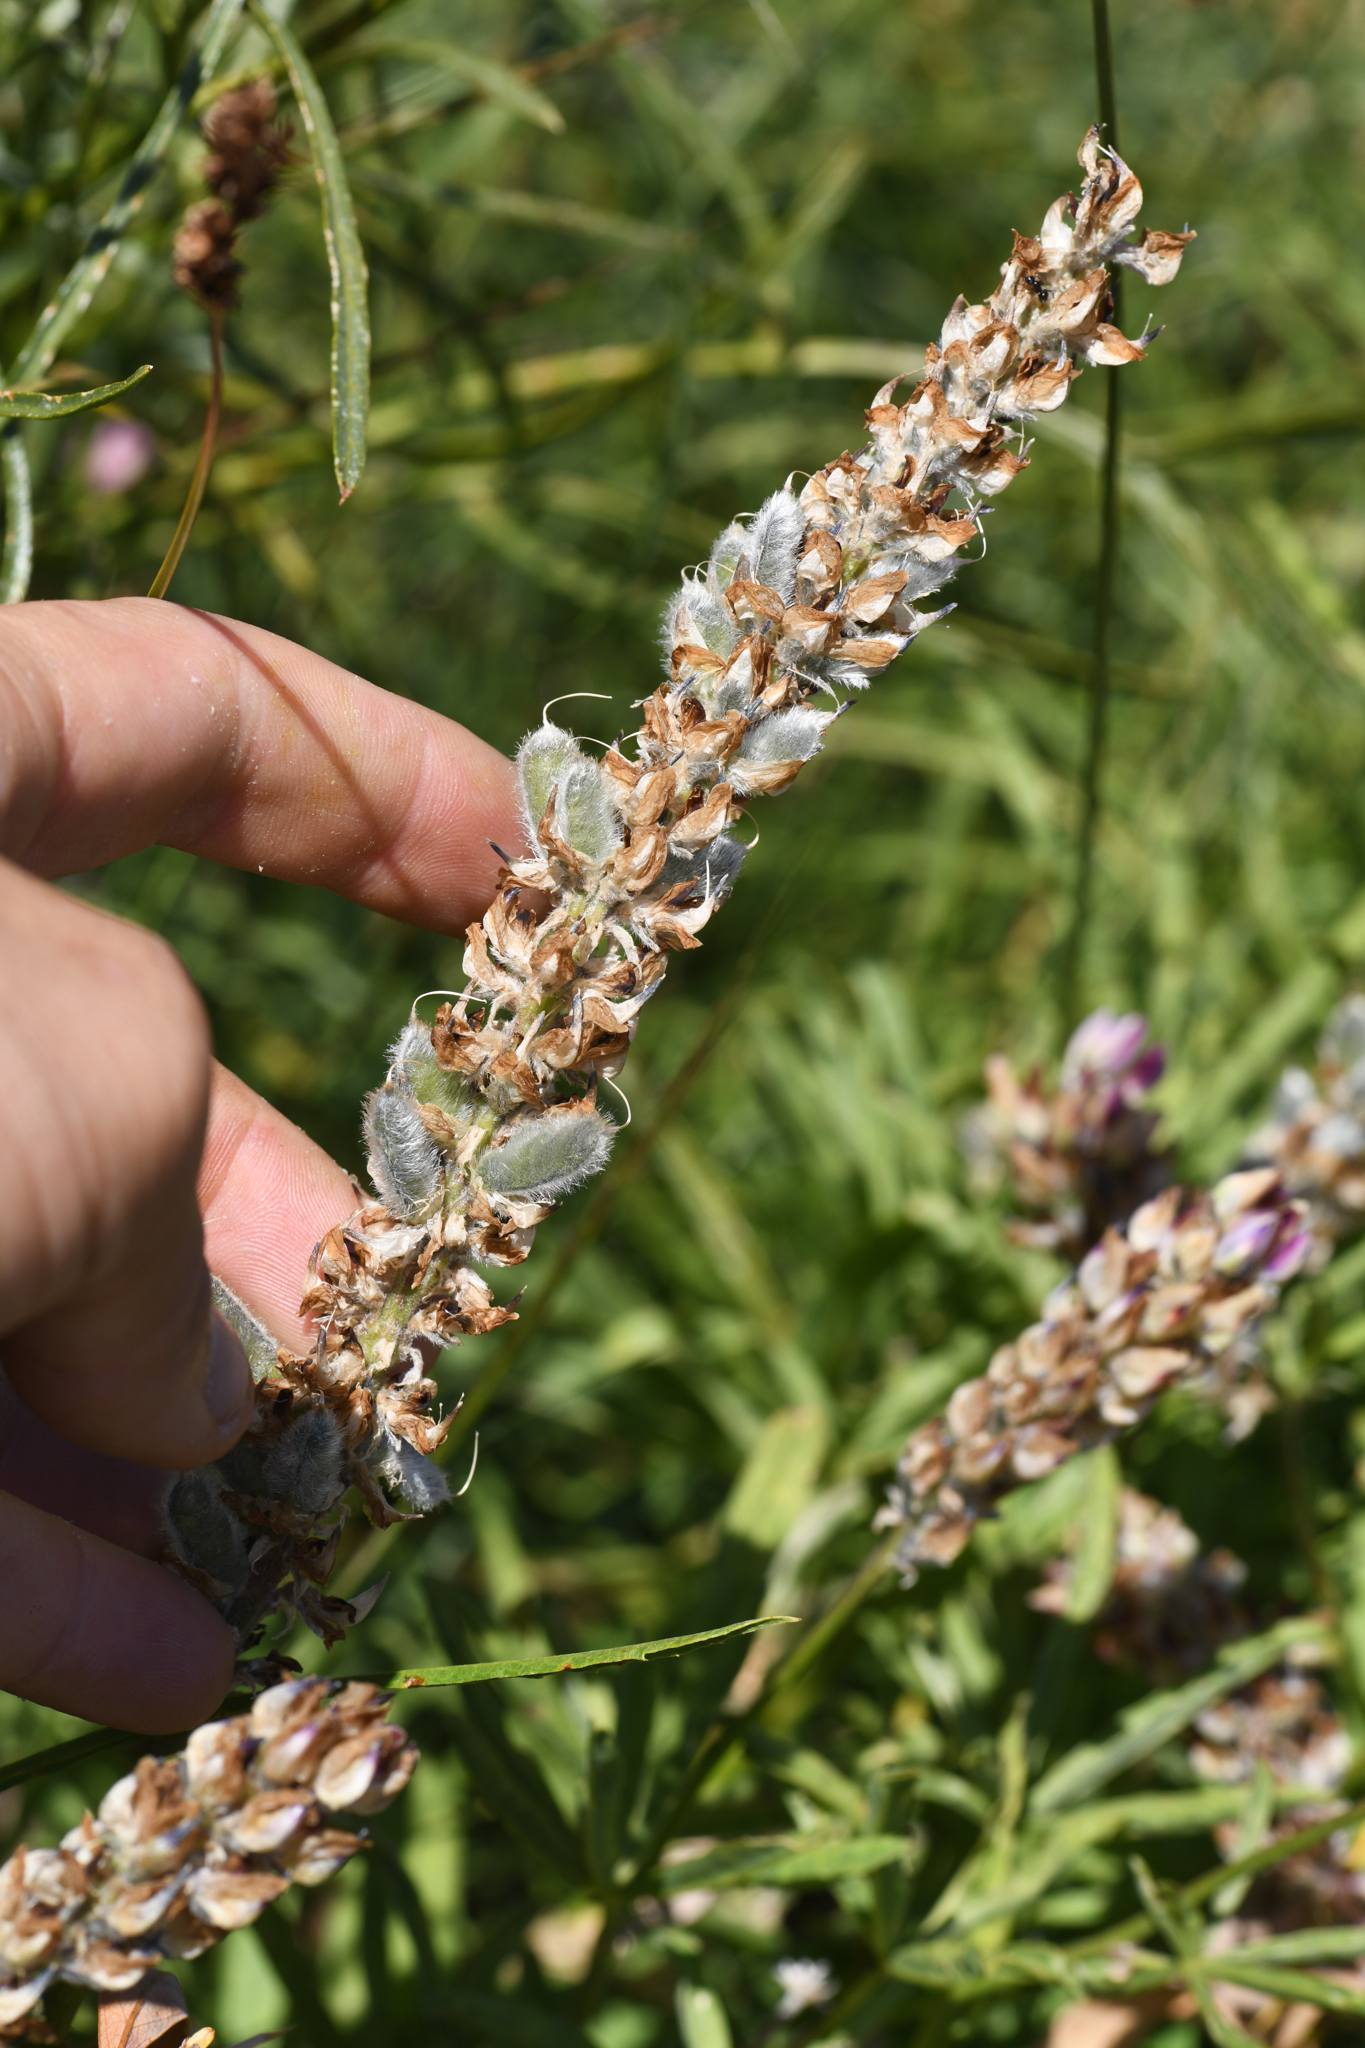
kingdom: Plantae
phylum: Tracheophyta
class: Magnoliopsida
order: Fabales
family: Fabaceae
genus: Lupinus
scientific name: Lupinus pratensis
